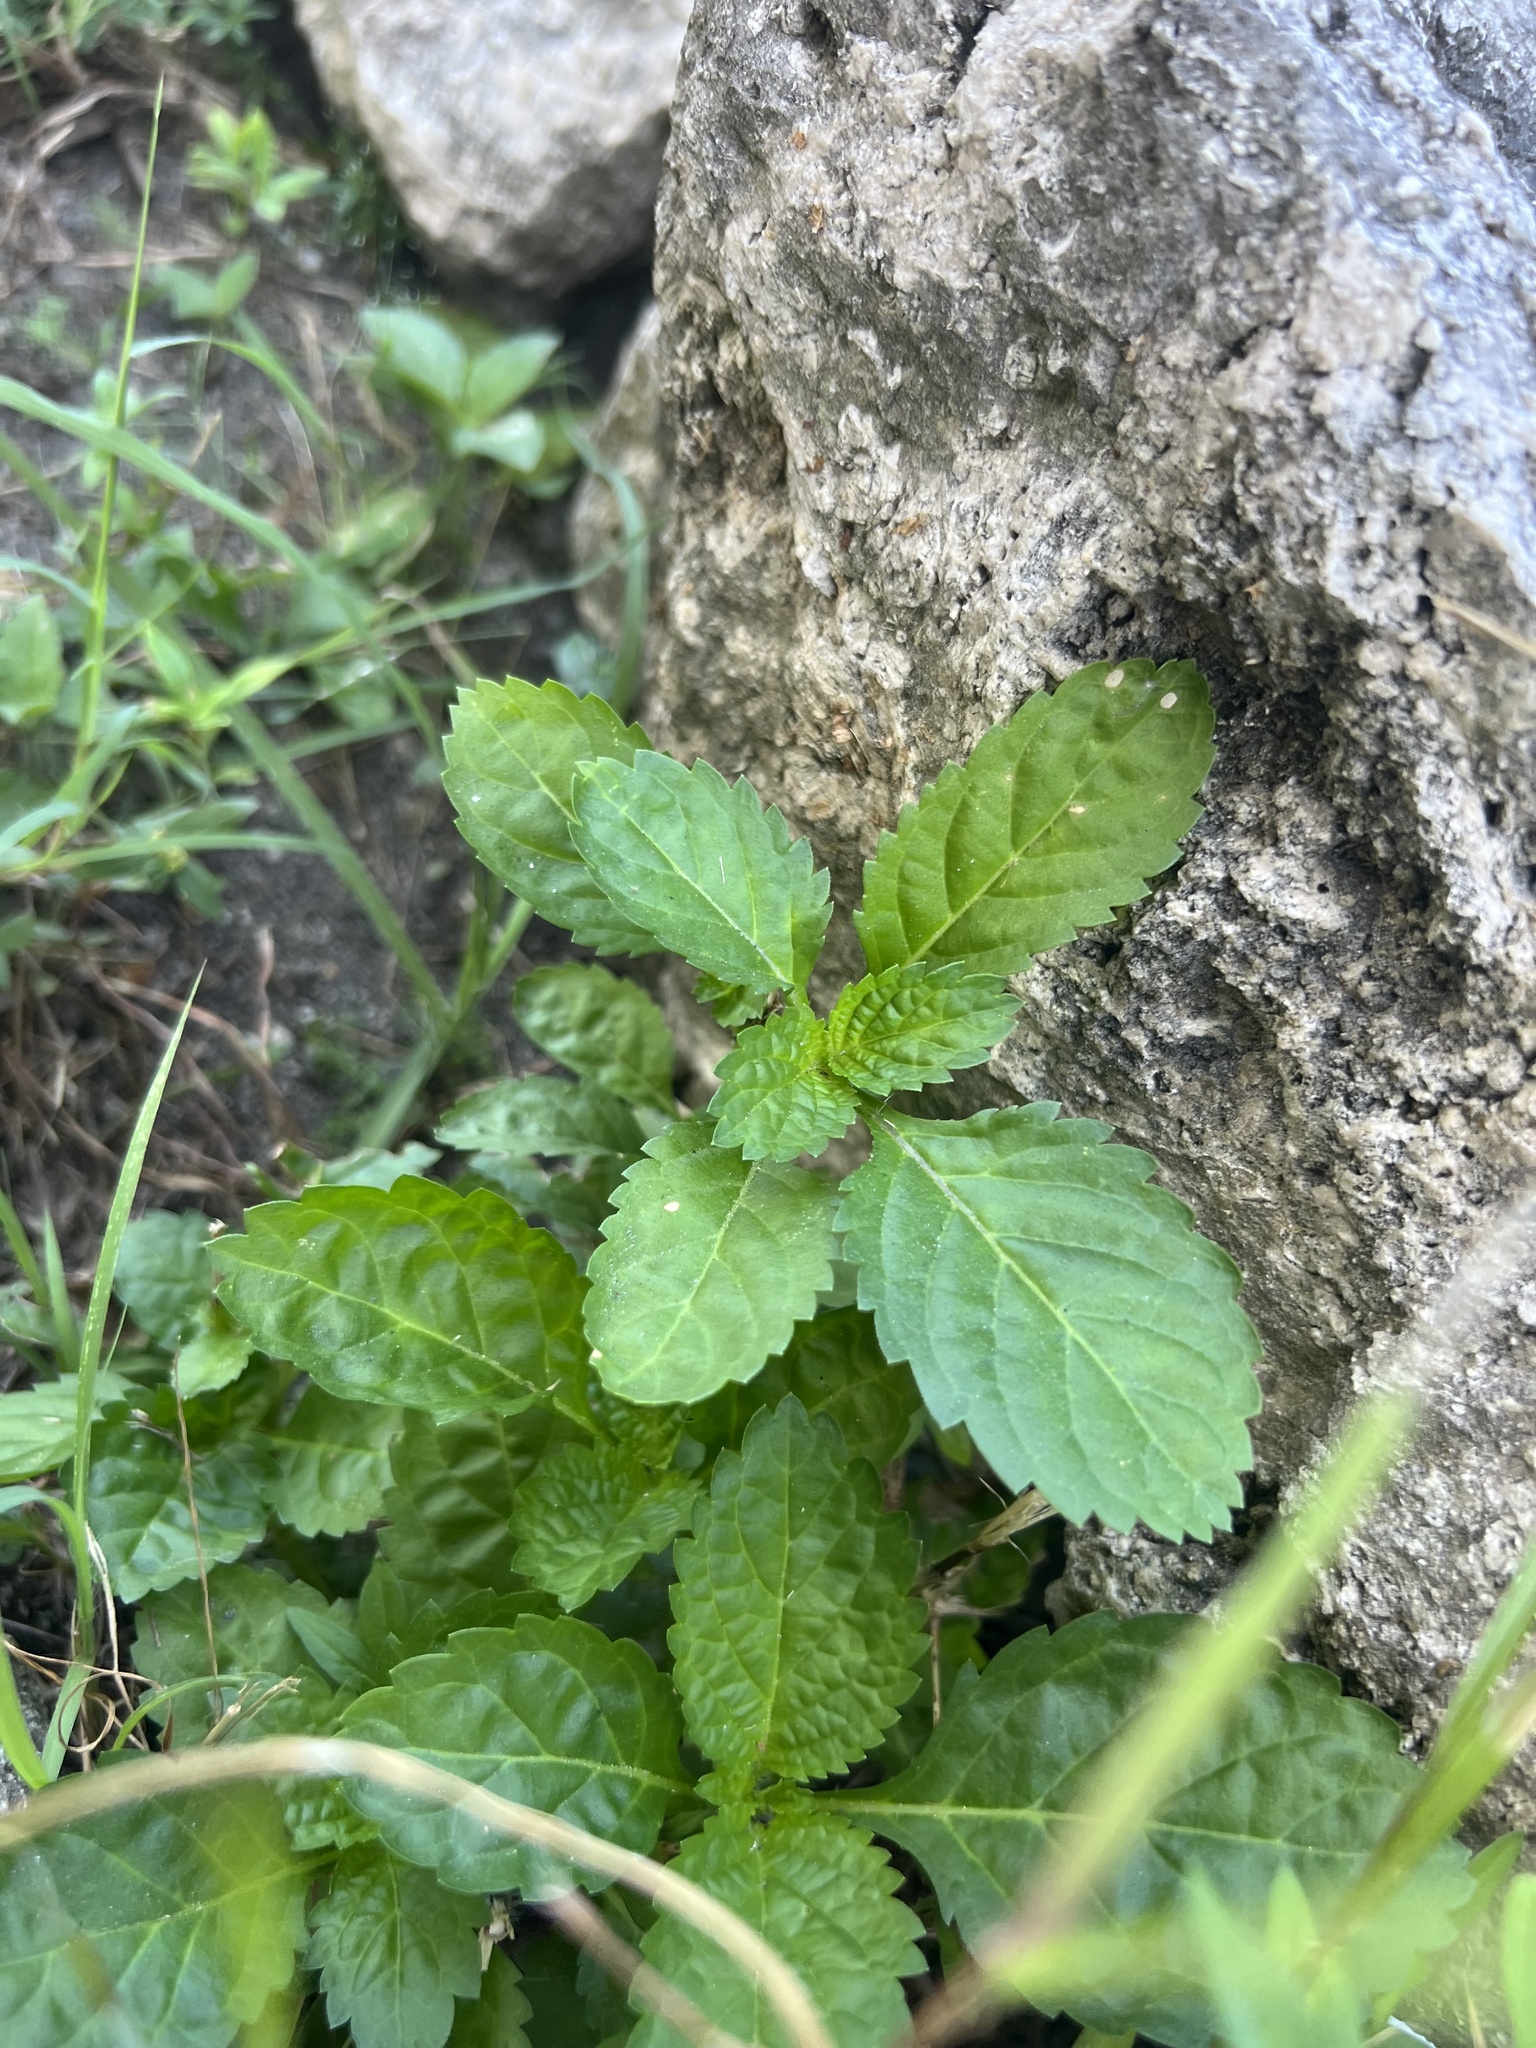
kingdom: Plantae
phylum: Tracheophyta
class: Magnoliopsida
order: Lamiales
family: Verbenaceae
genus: Stachytarpheta
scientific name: Stachytarpheta jamaicensis
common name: Light-blue snakeweed
